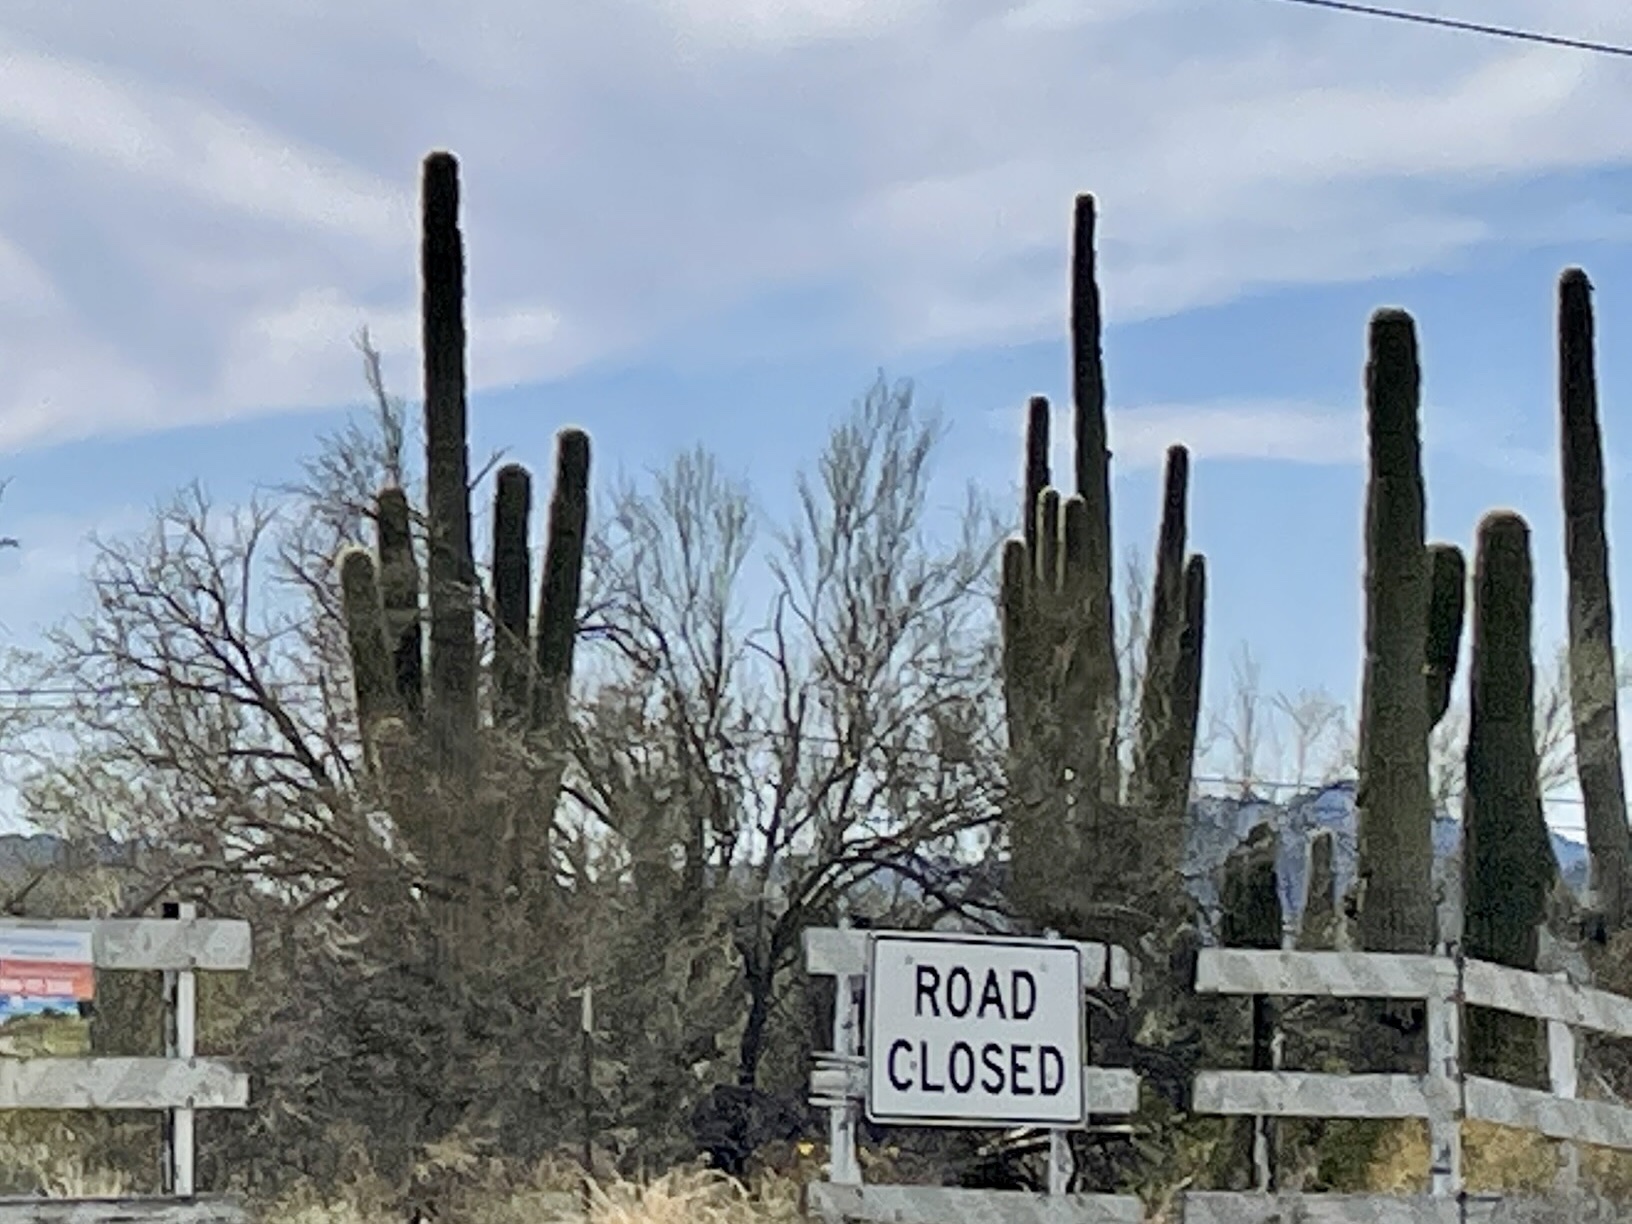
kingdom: Plantae
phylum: Tracheophyta
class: Magnoliopsida
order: Caryophyllales
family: Cactaceae
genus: Carnegiea
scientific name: Carnegiea gigantea
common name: Saguaro
